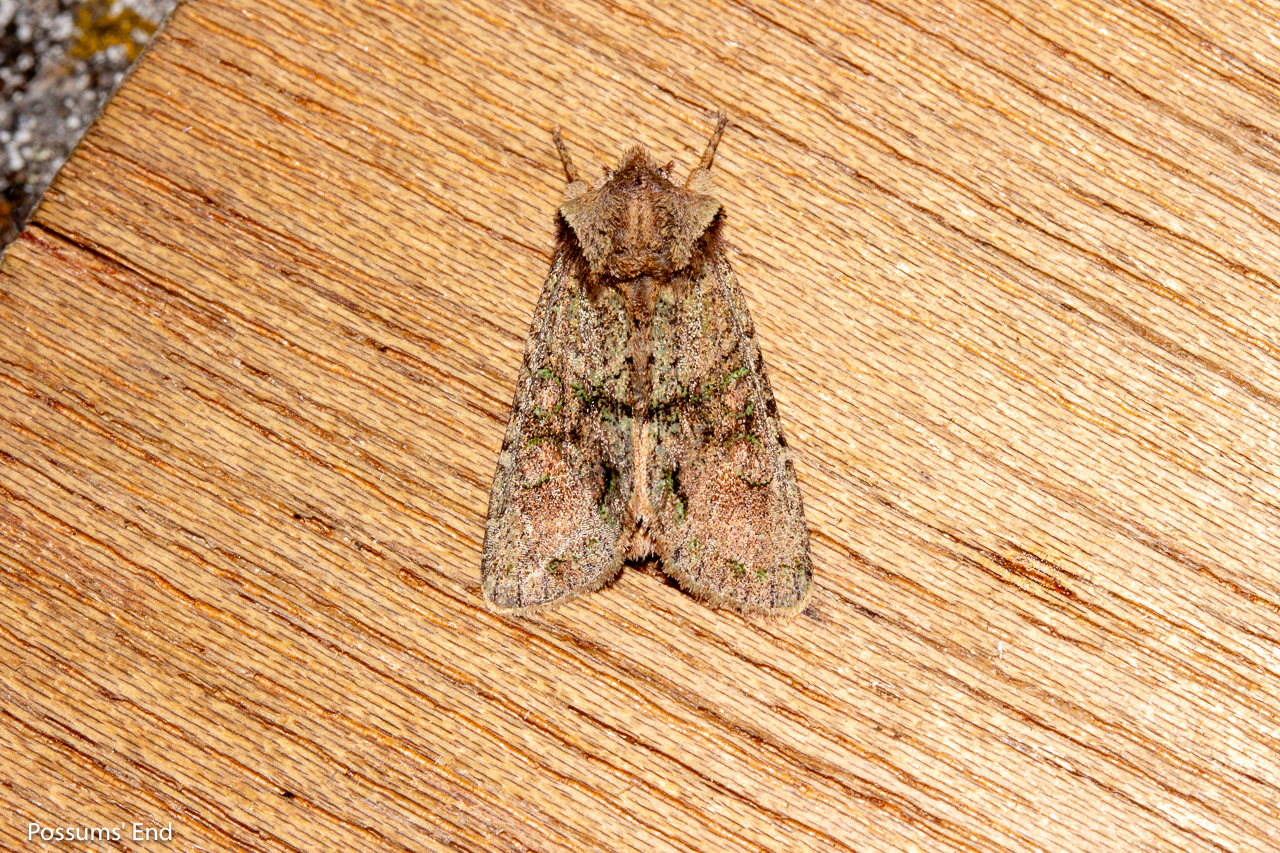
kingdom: Animalia
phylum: Arthropoda
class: Insecta
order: Lepidoptera
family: Noctuidae
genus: Ichneutica
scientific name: Ichneutica skelloni
